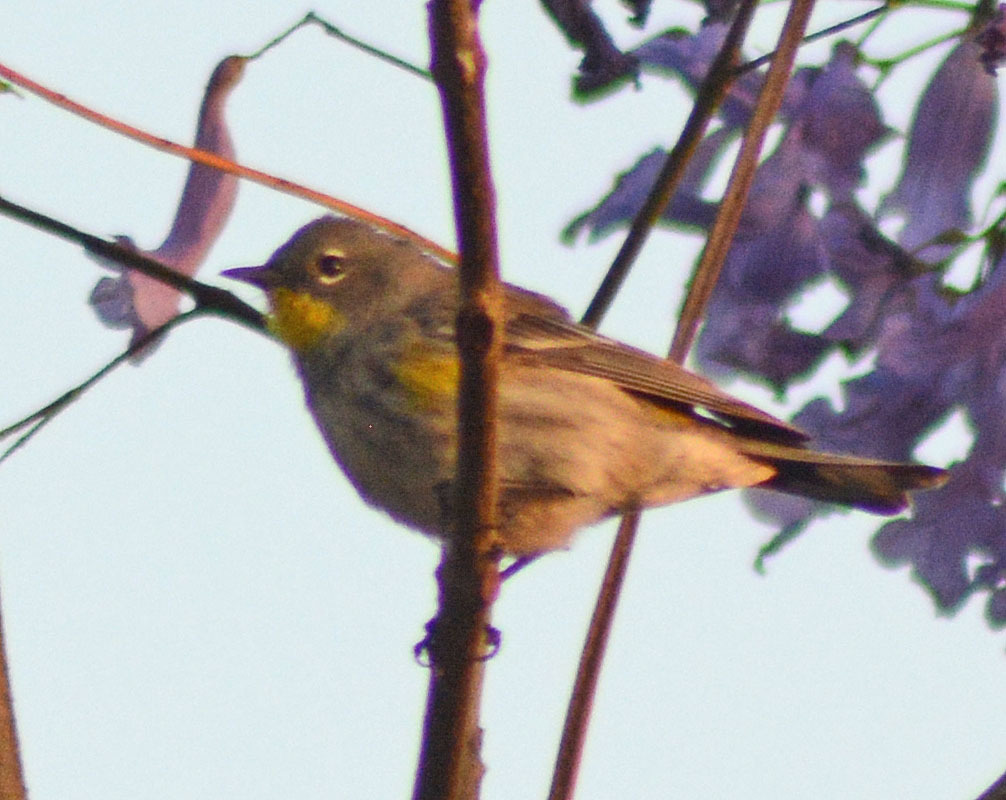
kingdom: Animalia
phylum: Chordata
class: Aves
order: Passeriformes
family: Parulidae
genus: Setophaga
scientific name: Setophaga coronata
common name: Myrtle warbler
